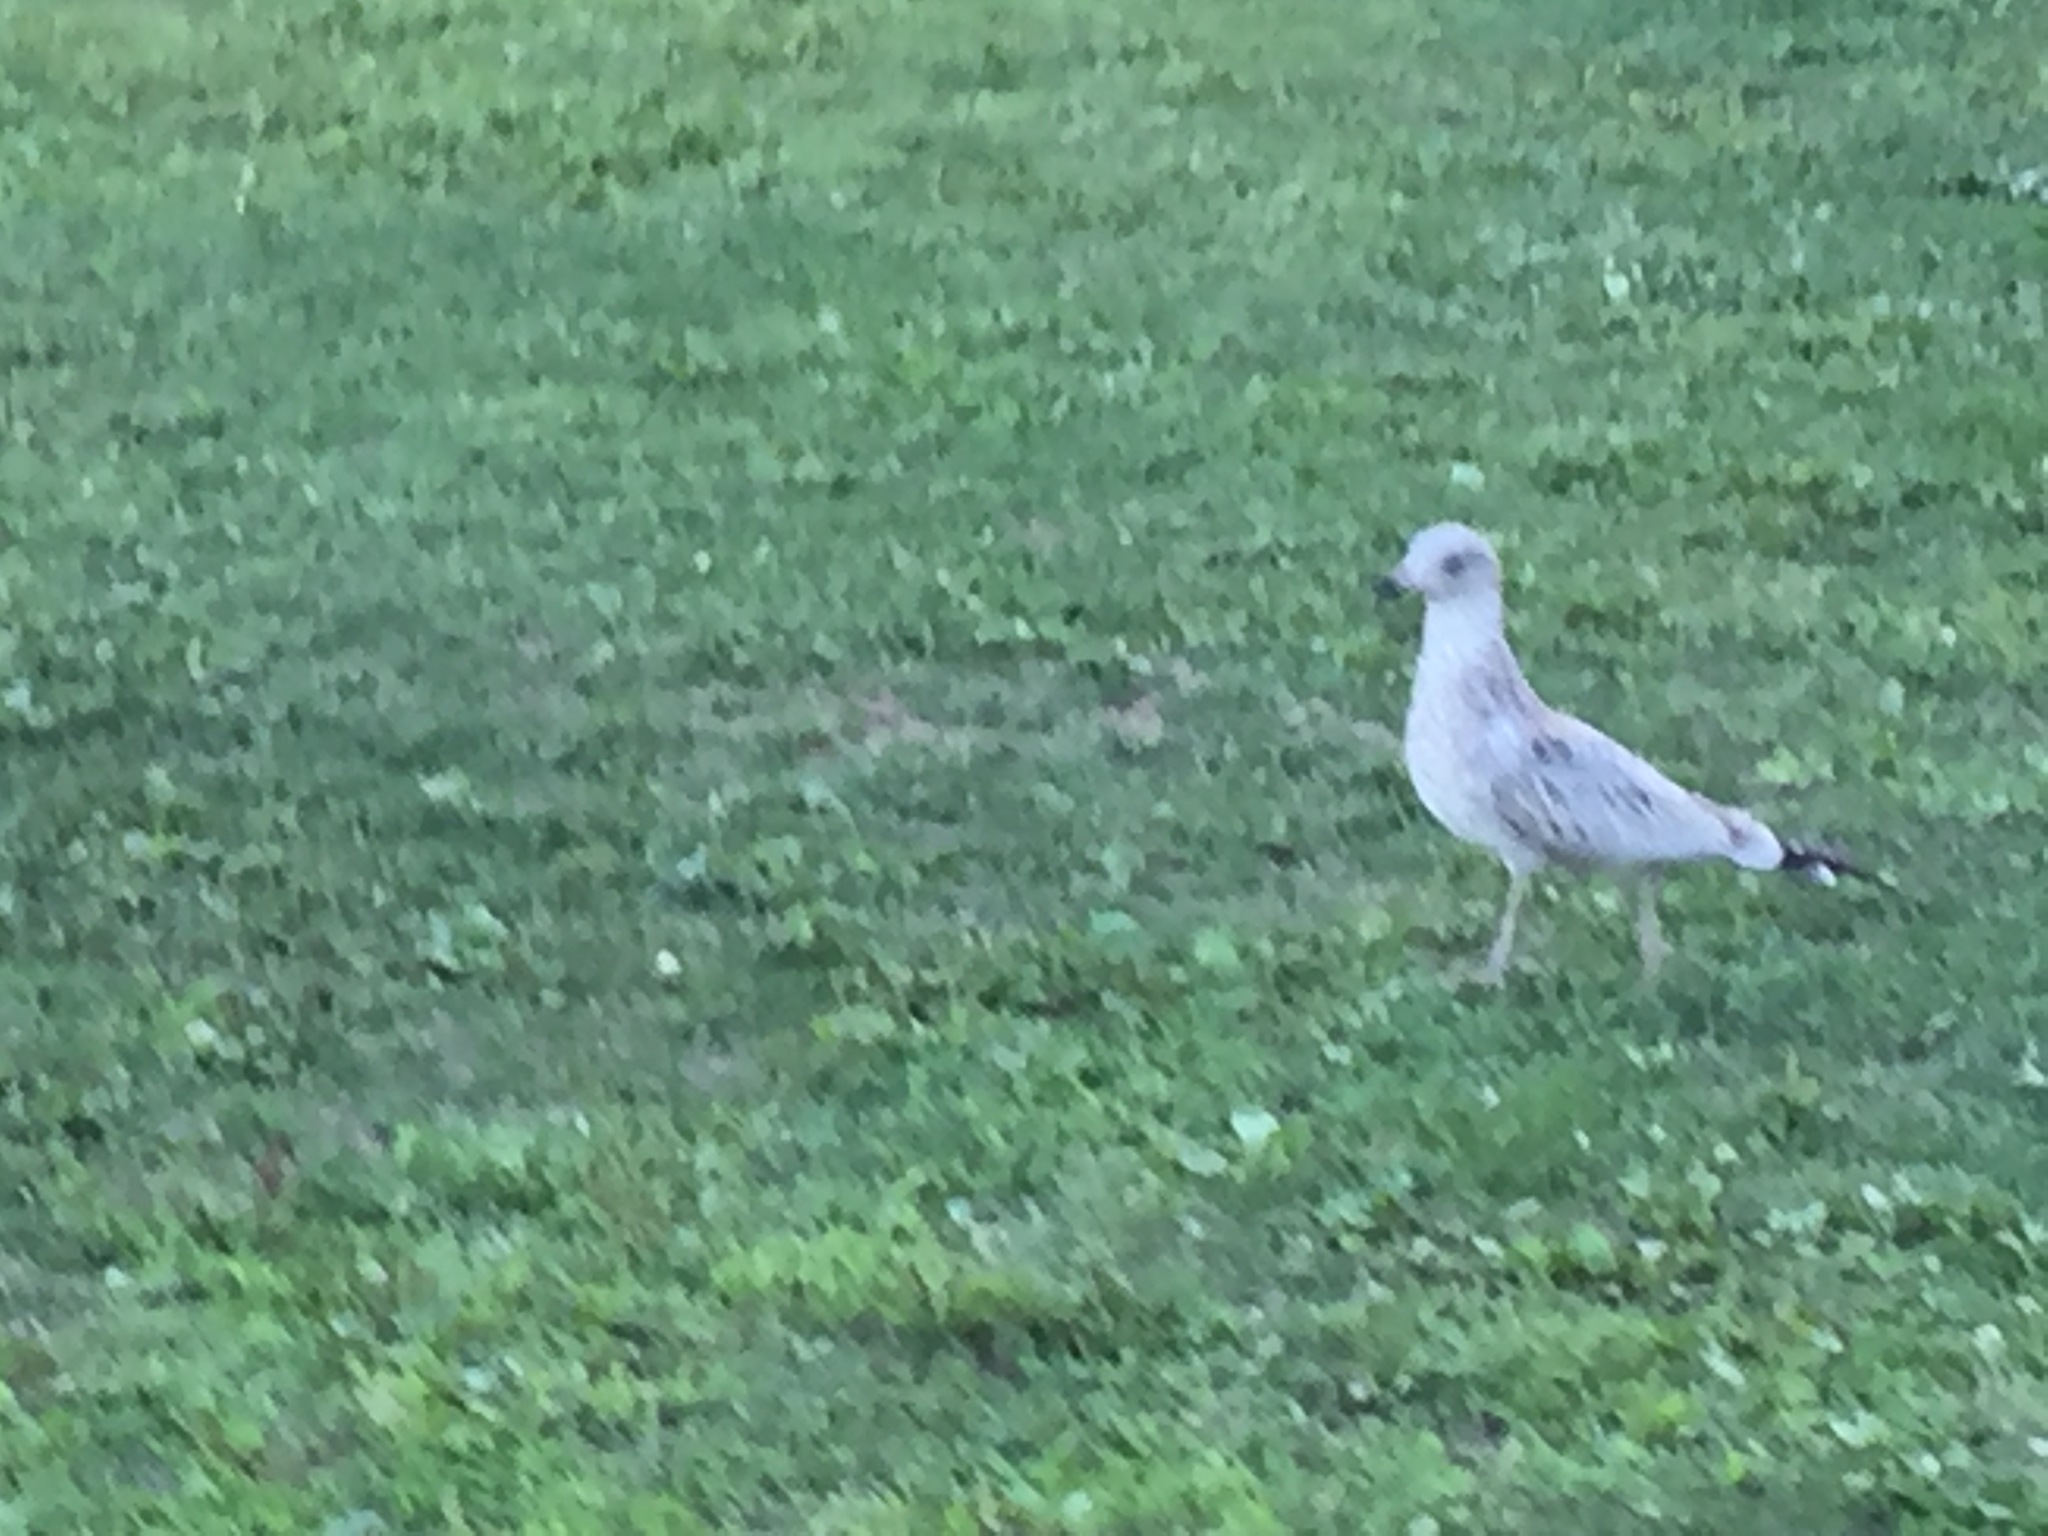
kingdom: Animalia
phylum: Chordata
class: Aves
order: Charadriiformes
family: Laridae
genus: Larus
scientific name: Larus delawarensis
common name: Ring-billed gull
